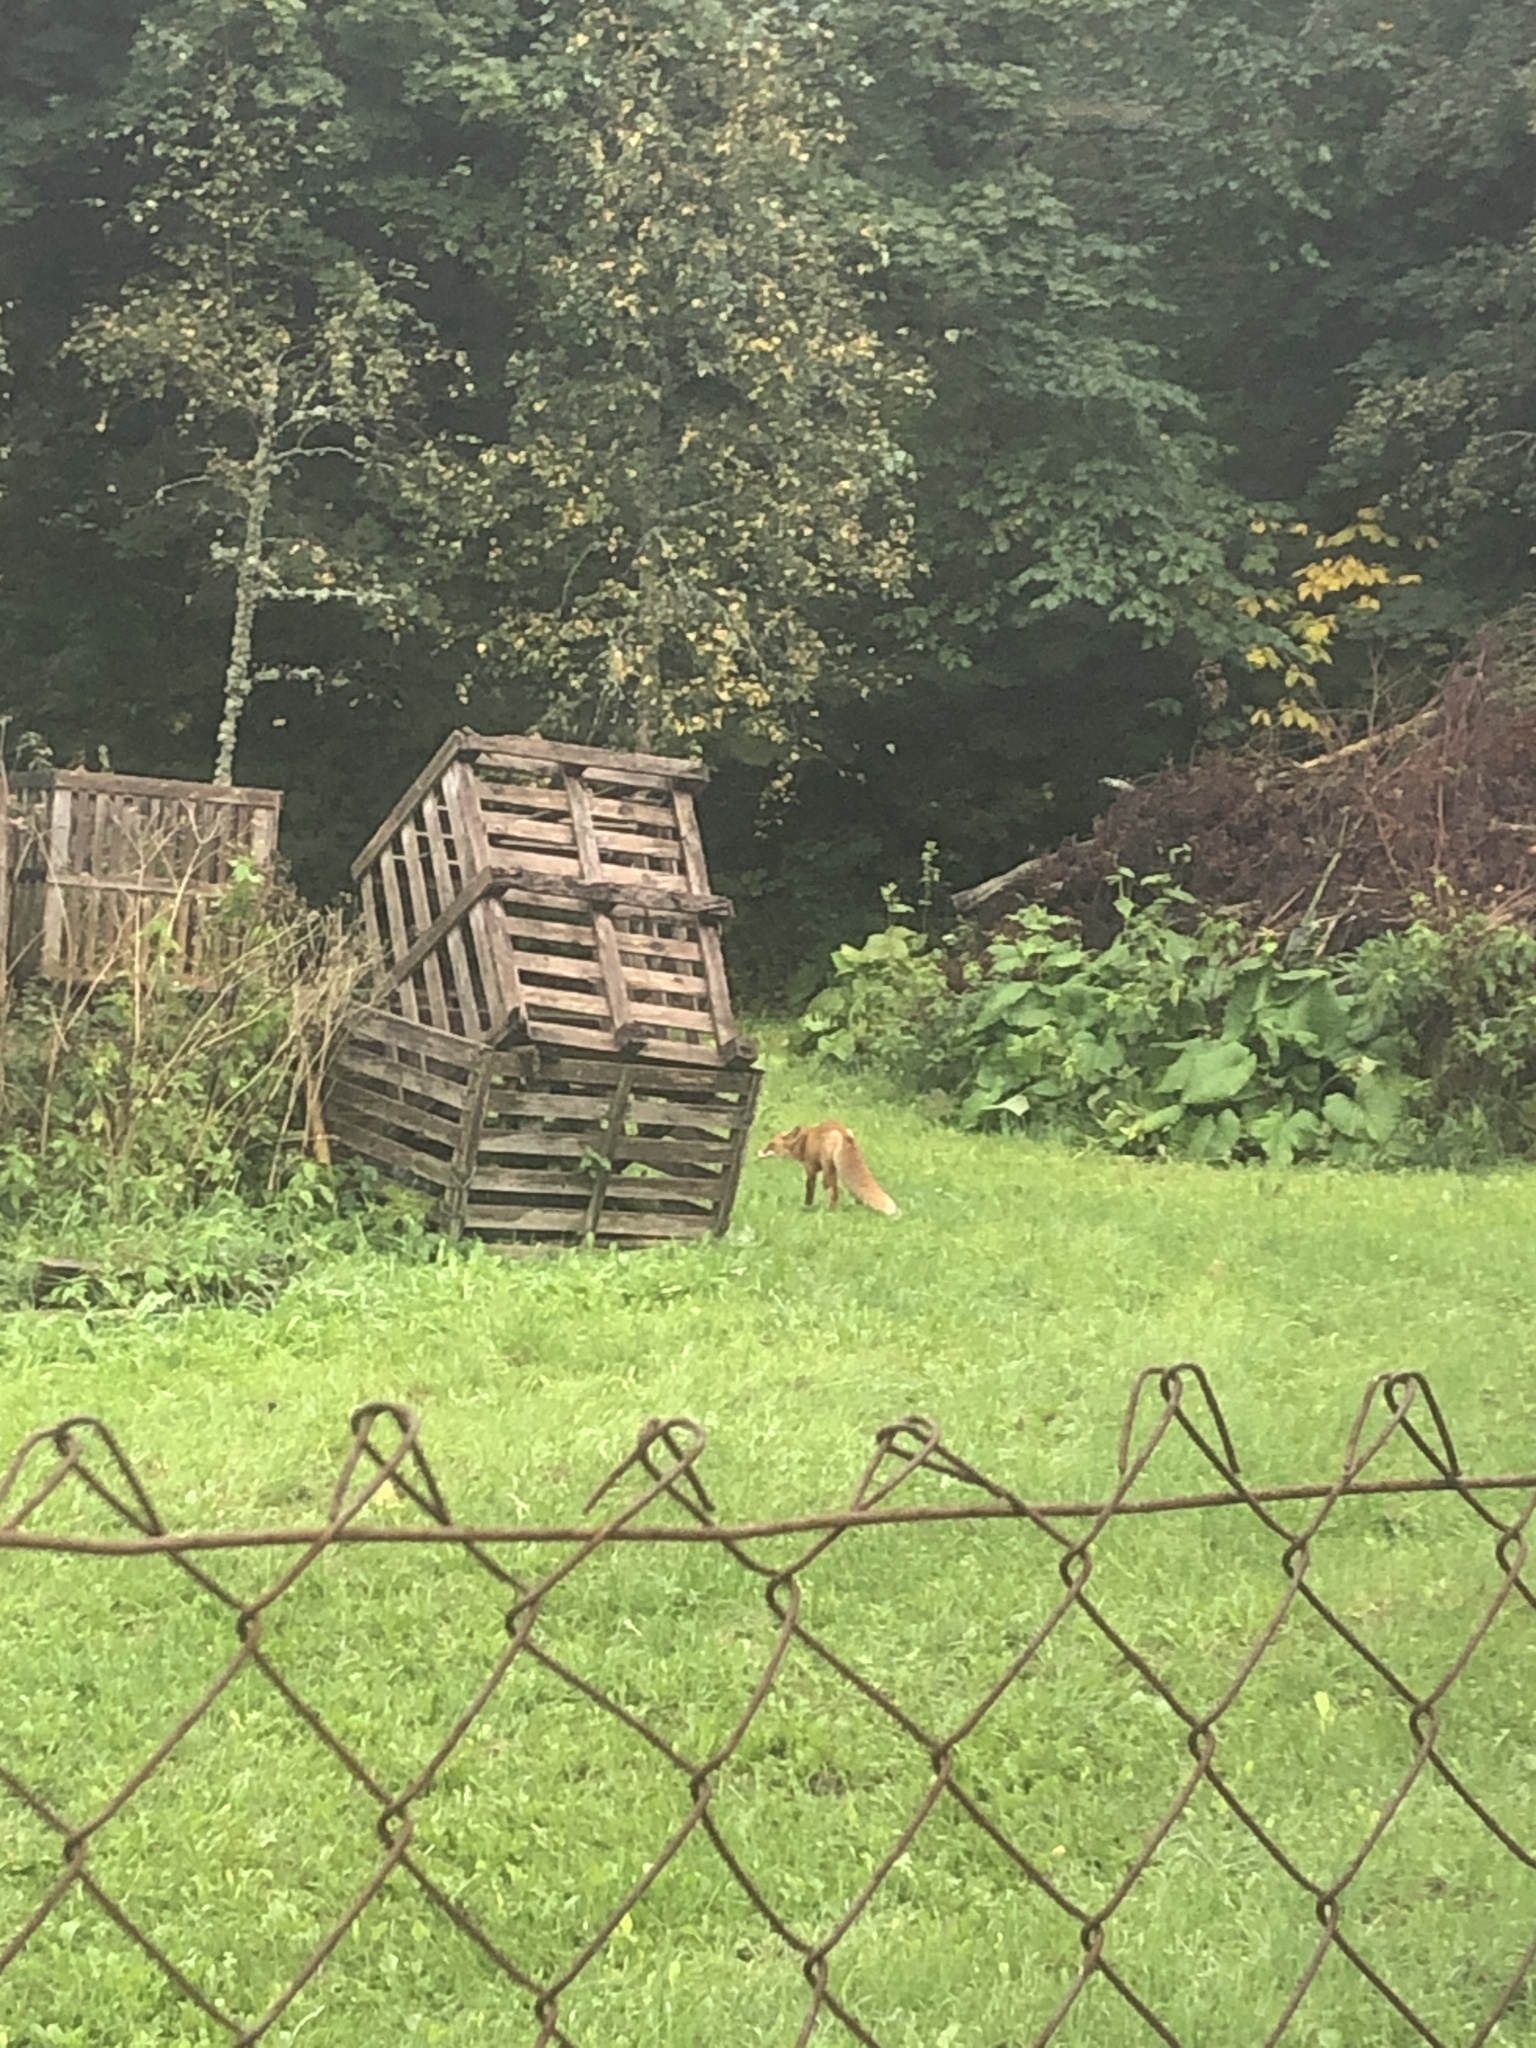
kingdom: Animalia
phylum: Chordata
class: Mammalia
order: Carnivora
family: Canidae
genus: Vulpes
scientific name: Vulpes vulpes
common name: Red fox
